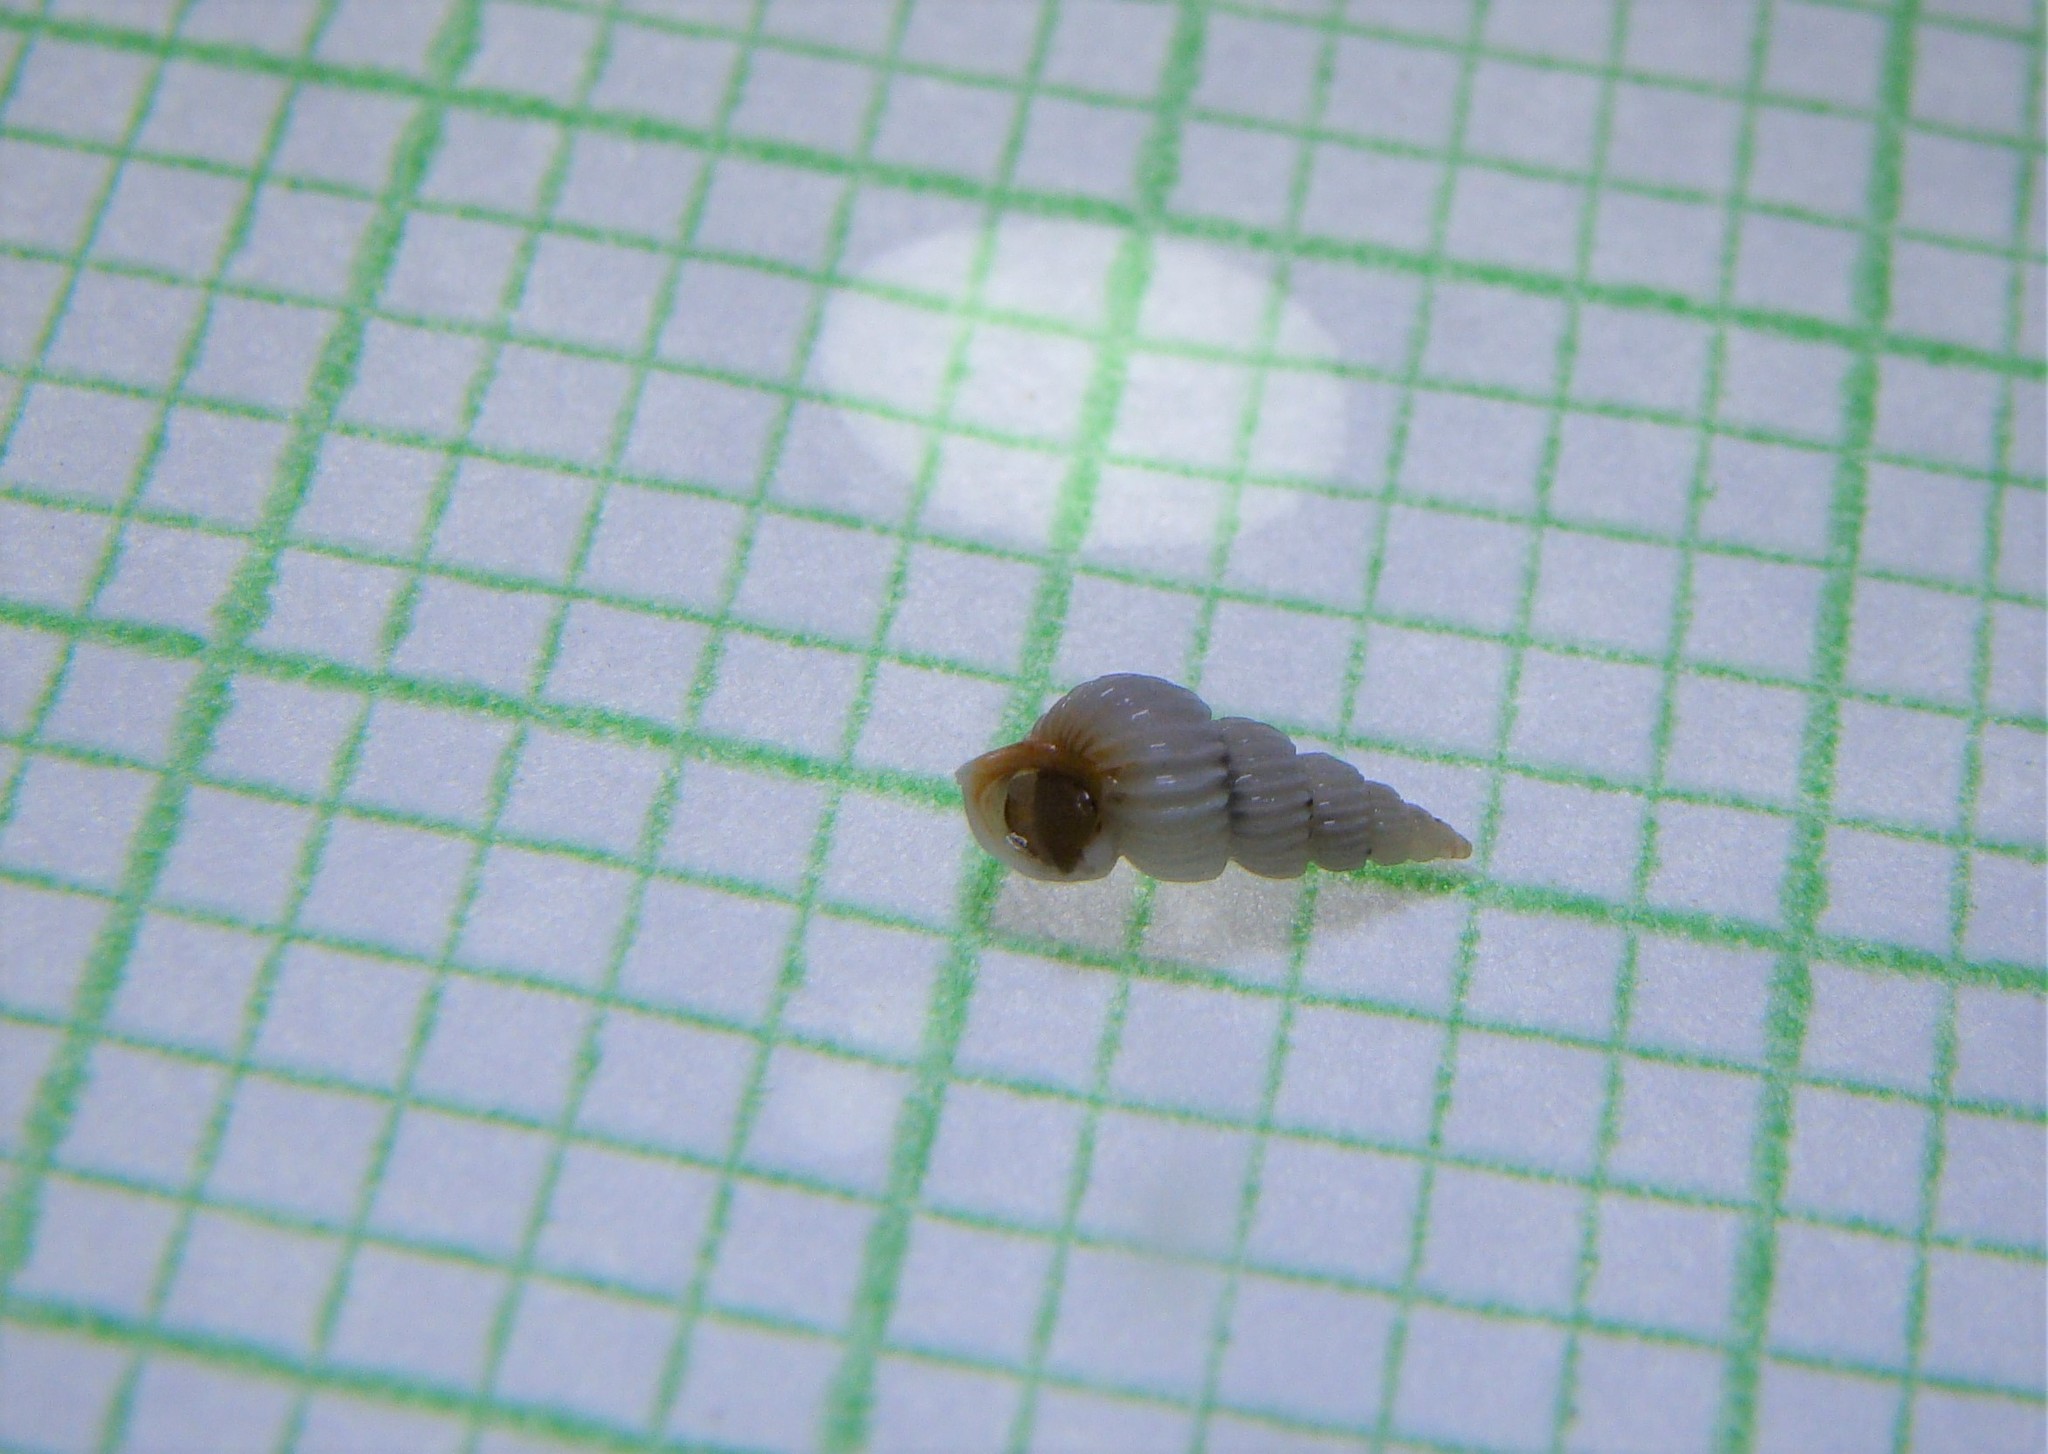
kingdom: Animalia
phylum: Mollusca
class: Gastropoda
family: Epitoniidae
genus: Epitonium
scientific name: Epitonium jukesianum
